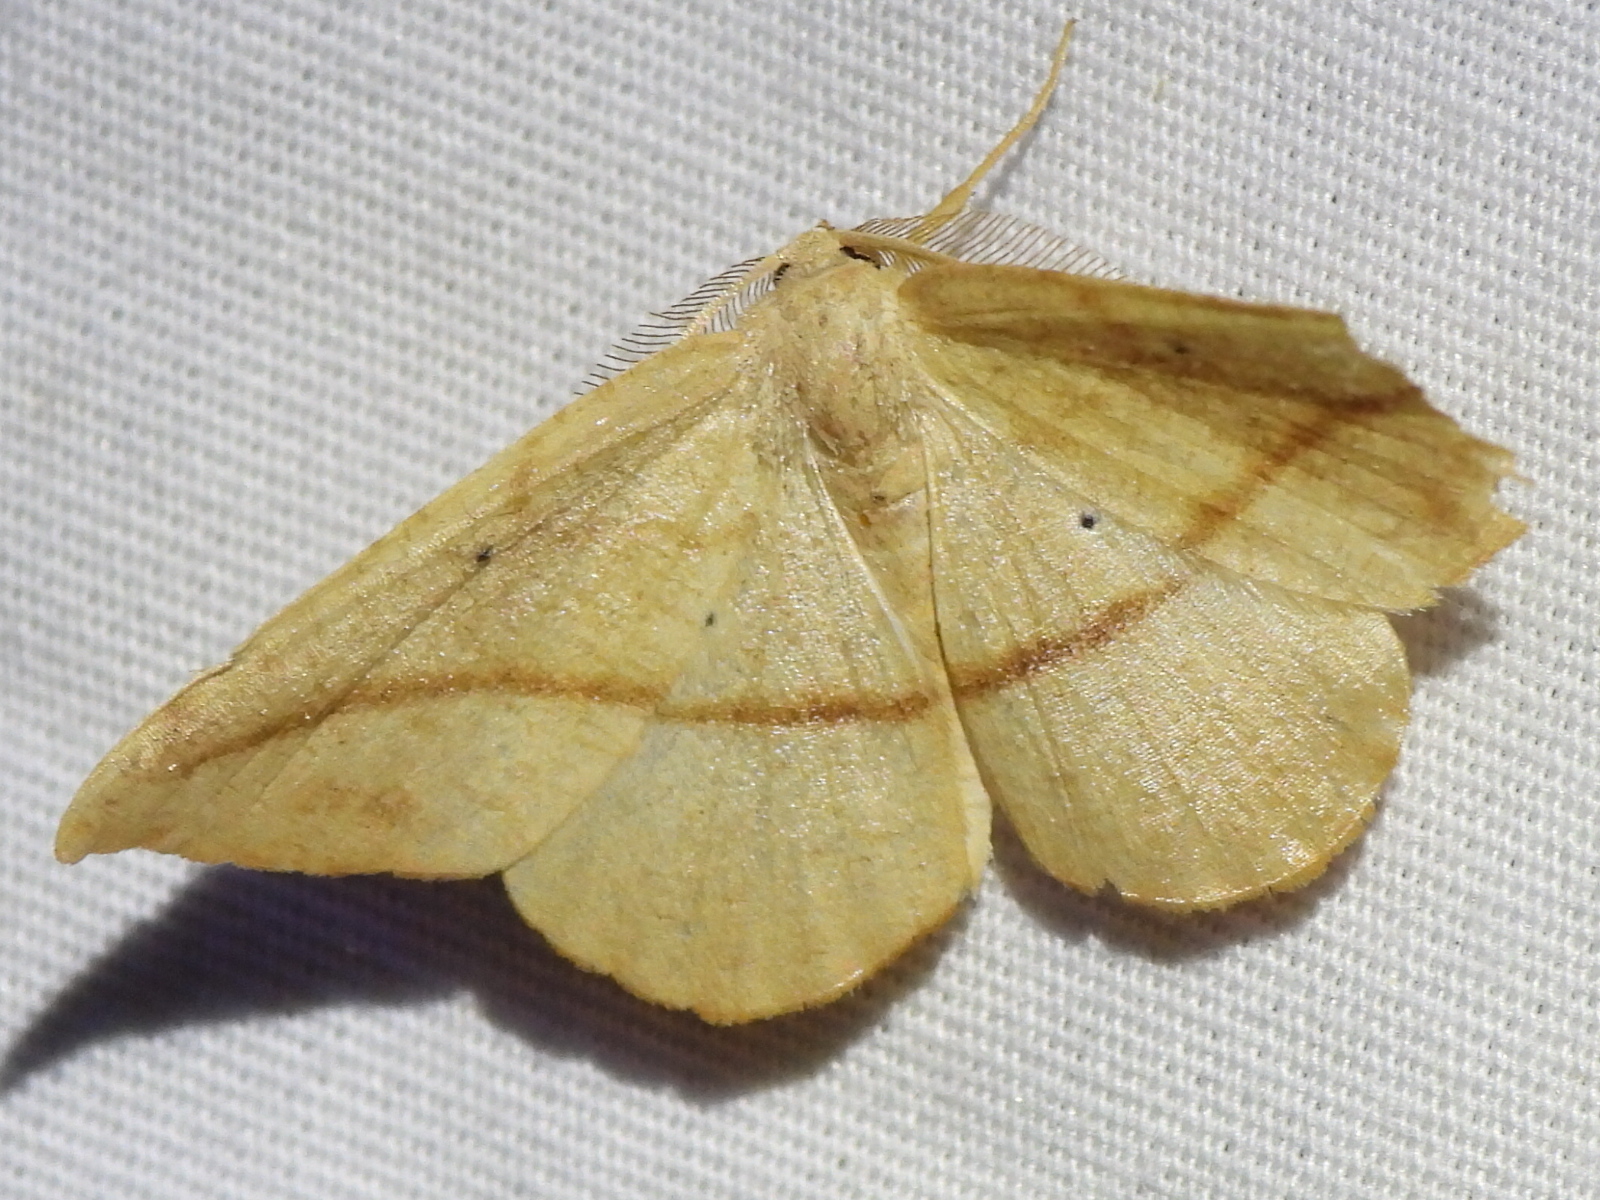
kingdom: Animalia
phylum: Arthropoda
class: Insecta
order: Lepidoptera
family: Geometridae
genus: Patalene
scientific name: Patalene olyzonaria
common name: Juniper geometer moth
